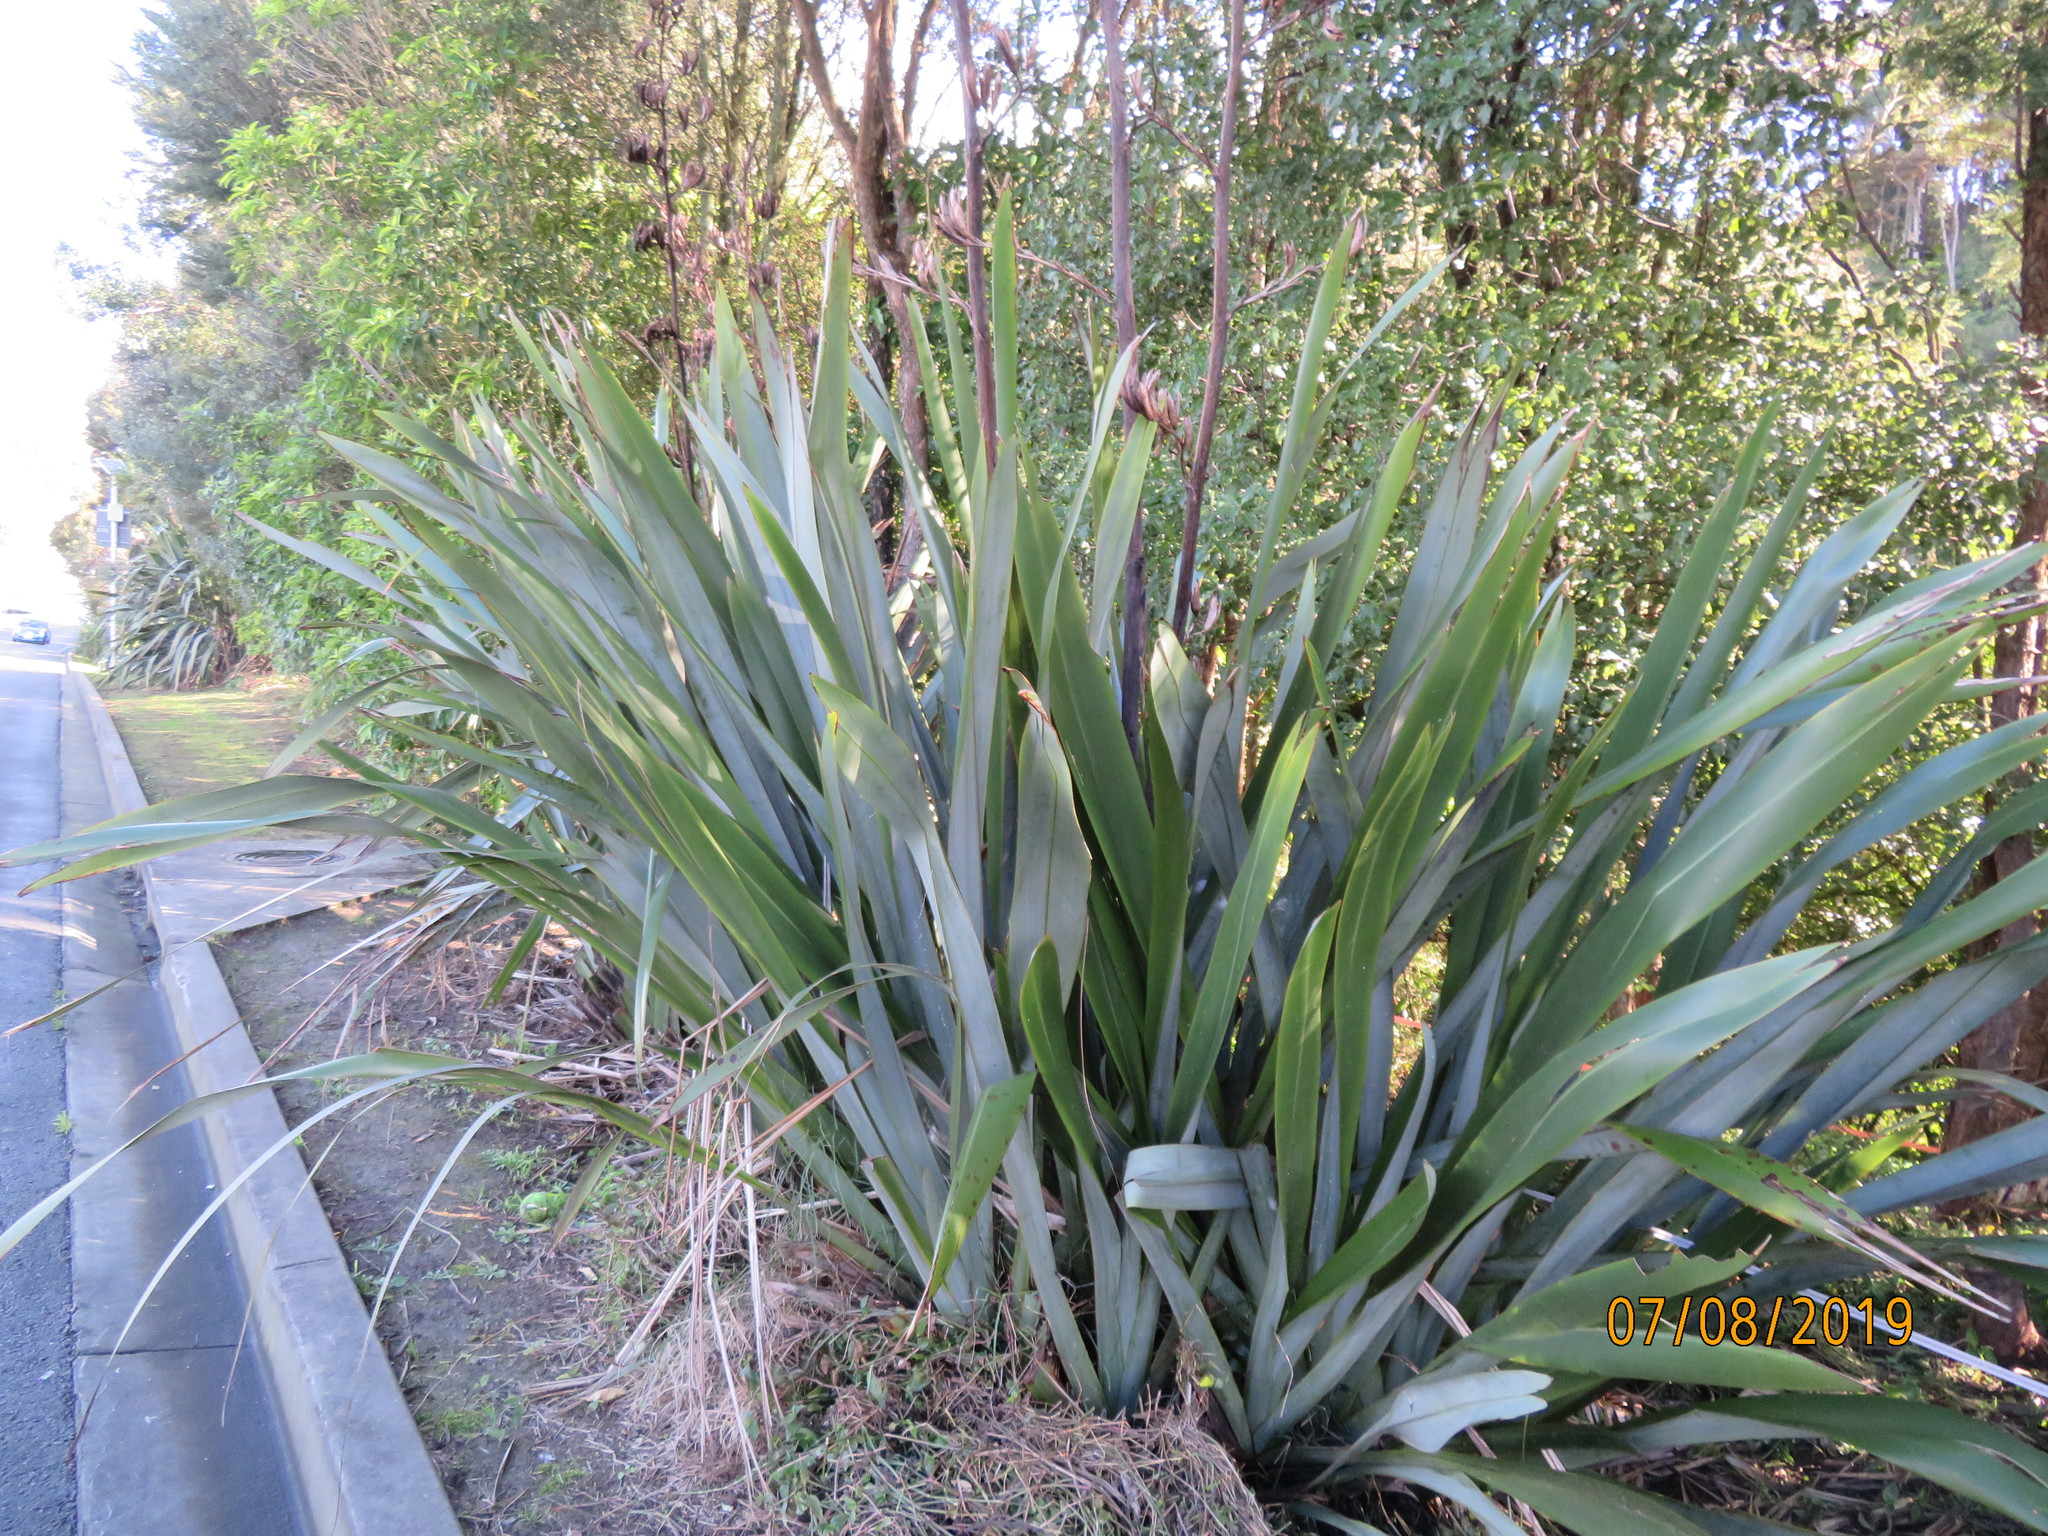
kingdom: Plantae
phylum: Tracheophyta
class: Liliopsida
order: Asparagales
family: Asphodelaceae
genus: Phormium
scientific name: Phormium tenax
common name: New zealand flax
